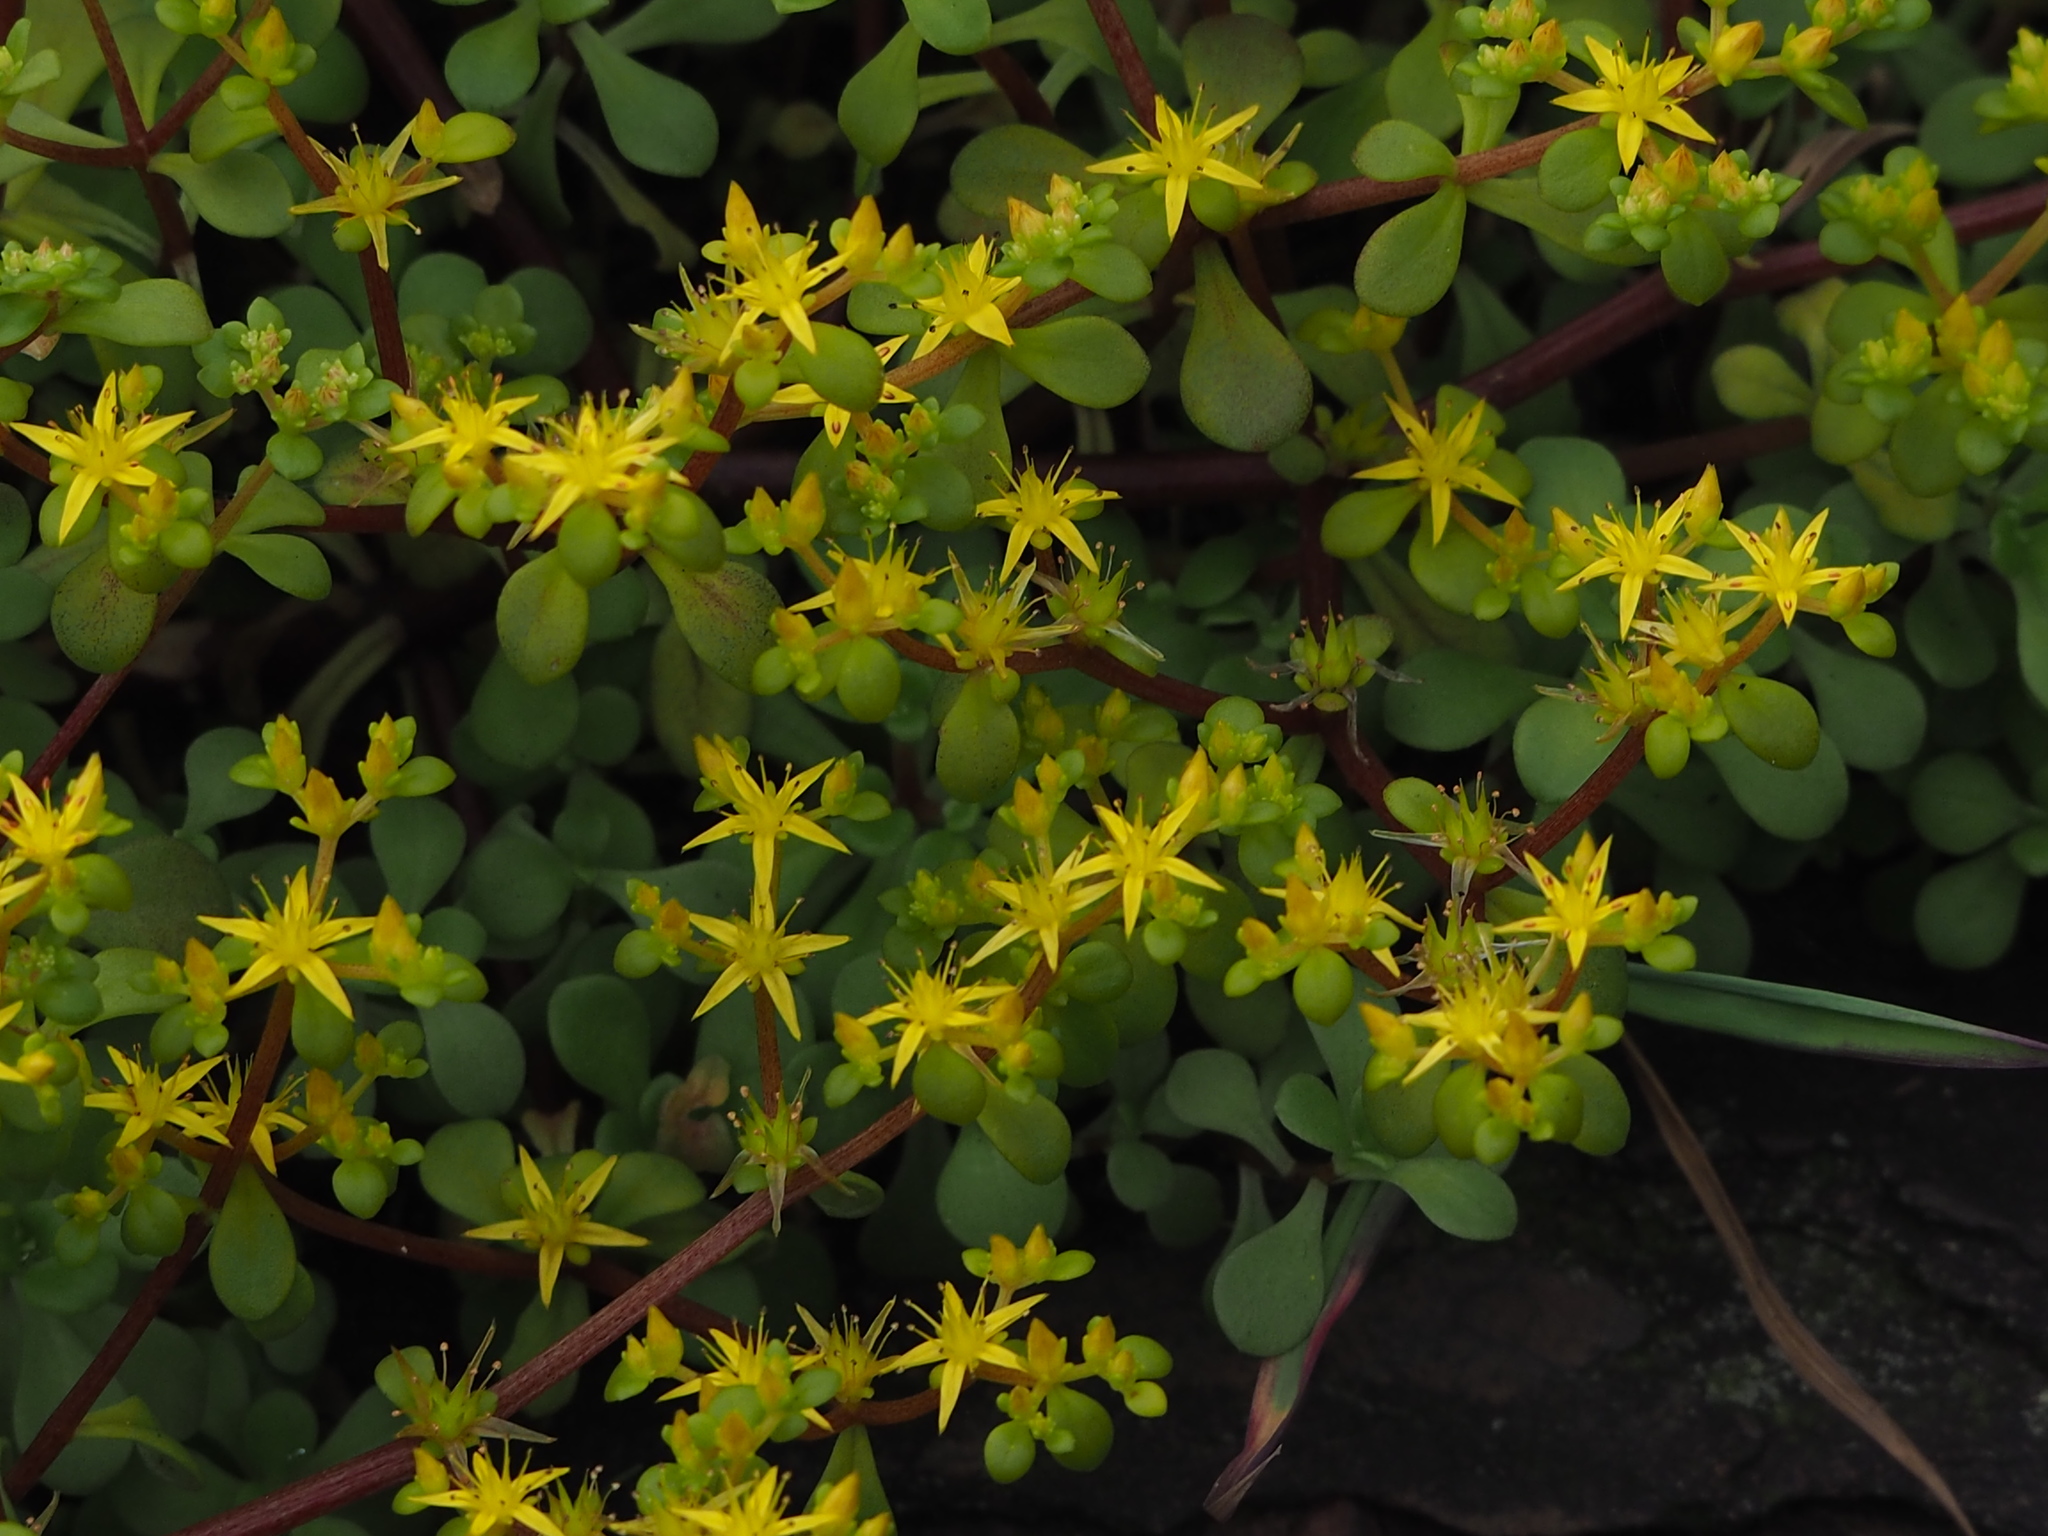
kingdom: Plantae
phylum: Tracheophyta
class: Magnoliopsida
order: Saxifragales
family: Crassulaceae
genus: Sedum
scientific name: Sedum formosanum
